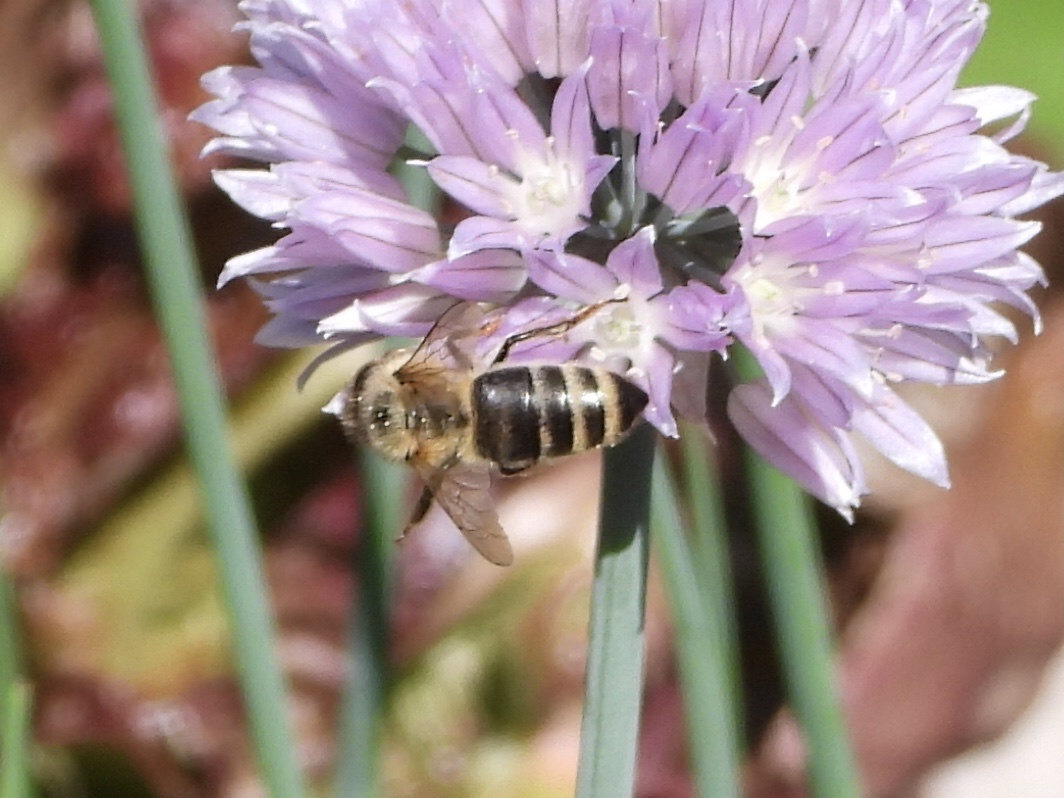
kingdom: Animalia
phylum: Arthropoda
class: Insecta
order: Hymenoptera
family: Apidae
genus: Apis
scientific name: Apis mellifera
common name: Honey bee
